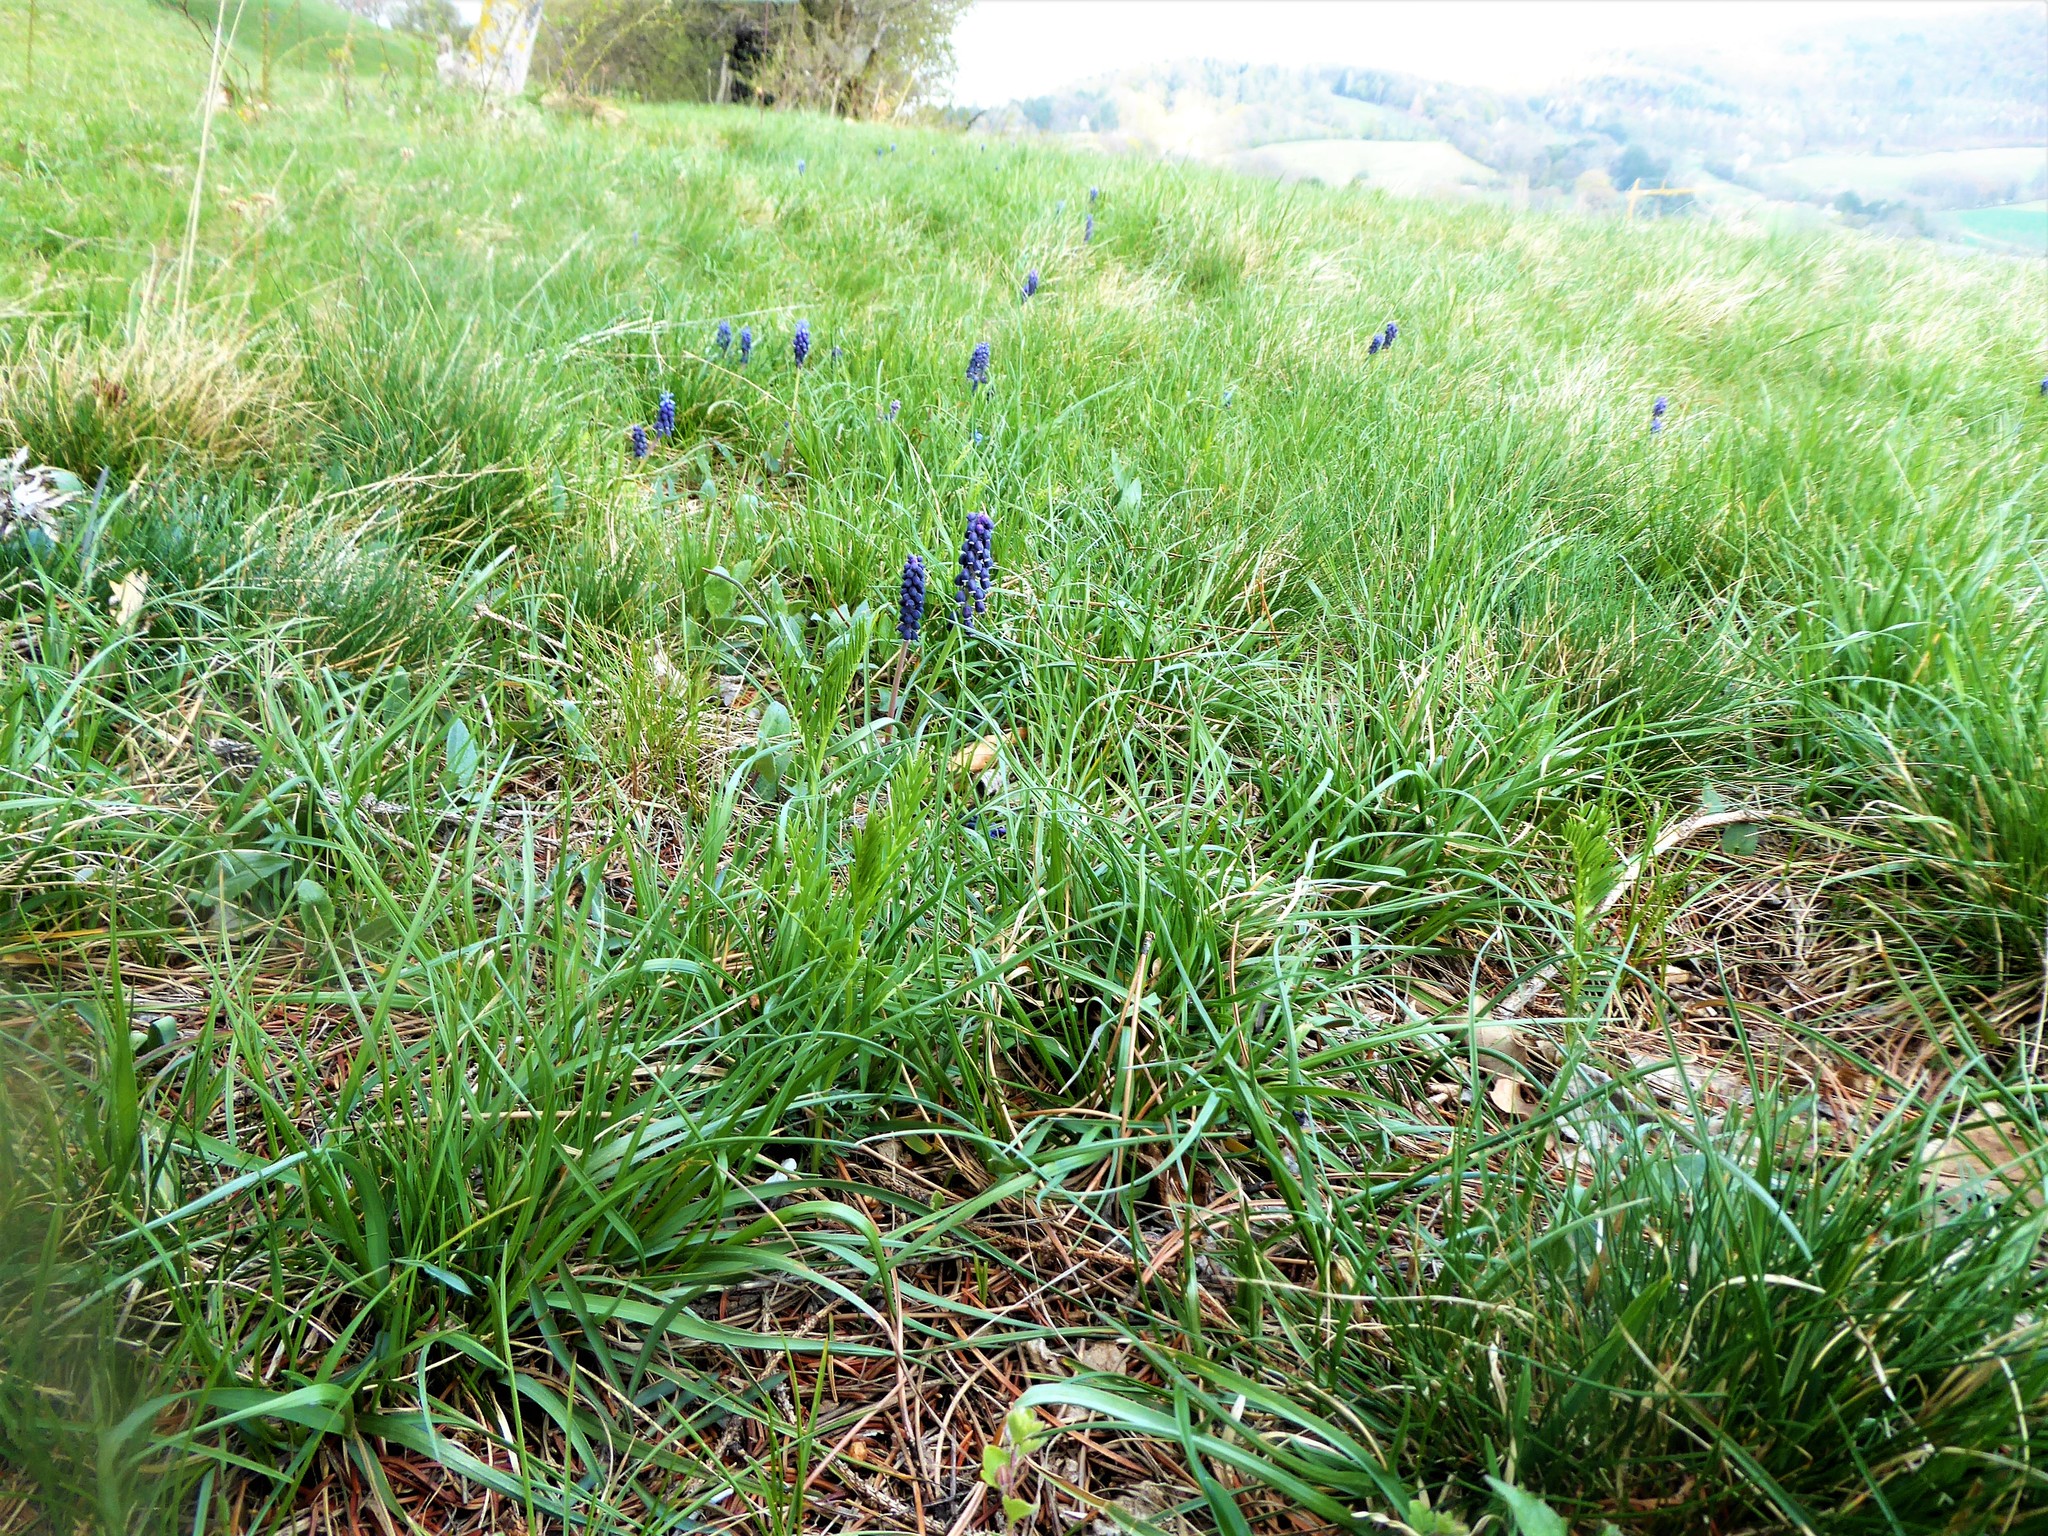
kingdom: Plantae
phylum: Tracheophyta
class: Liliopsida
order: Asparagales
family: Asparagaceae
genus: Muscari
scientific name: Muscari neglectum
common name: Grape-hyacinth
